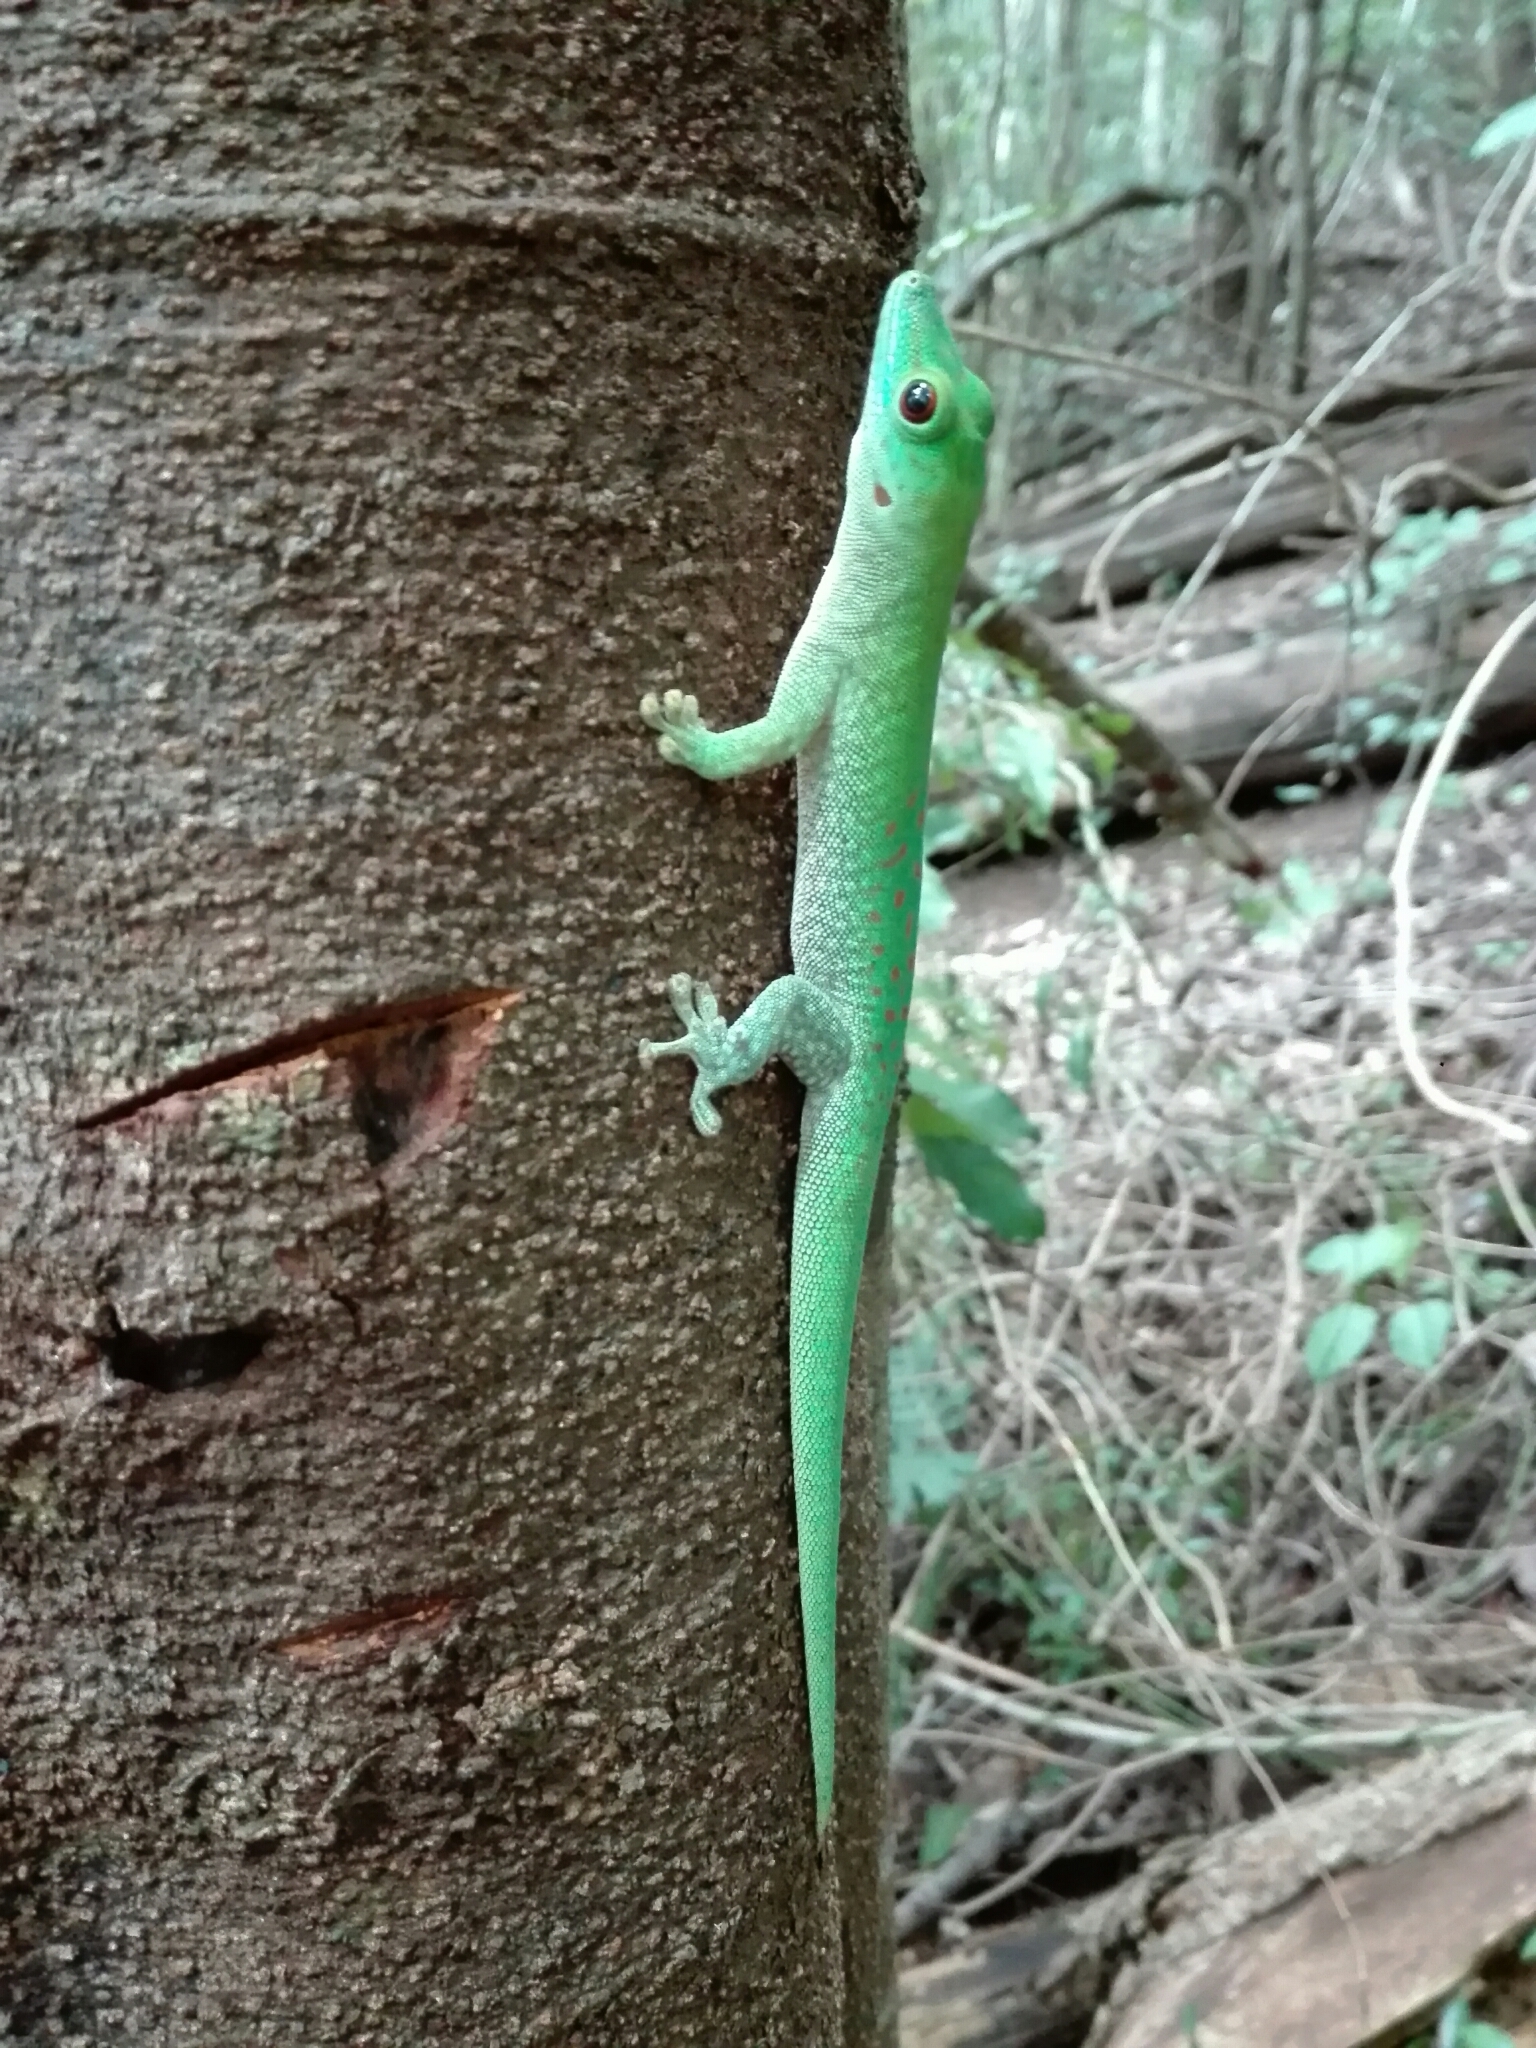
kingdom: Animalia
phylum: Chordata
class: Squamata
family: Gekkonidae
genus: Phelsuma
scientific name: Phelsuma kochi
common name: Madagascar day gecko
